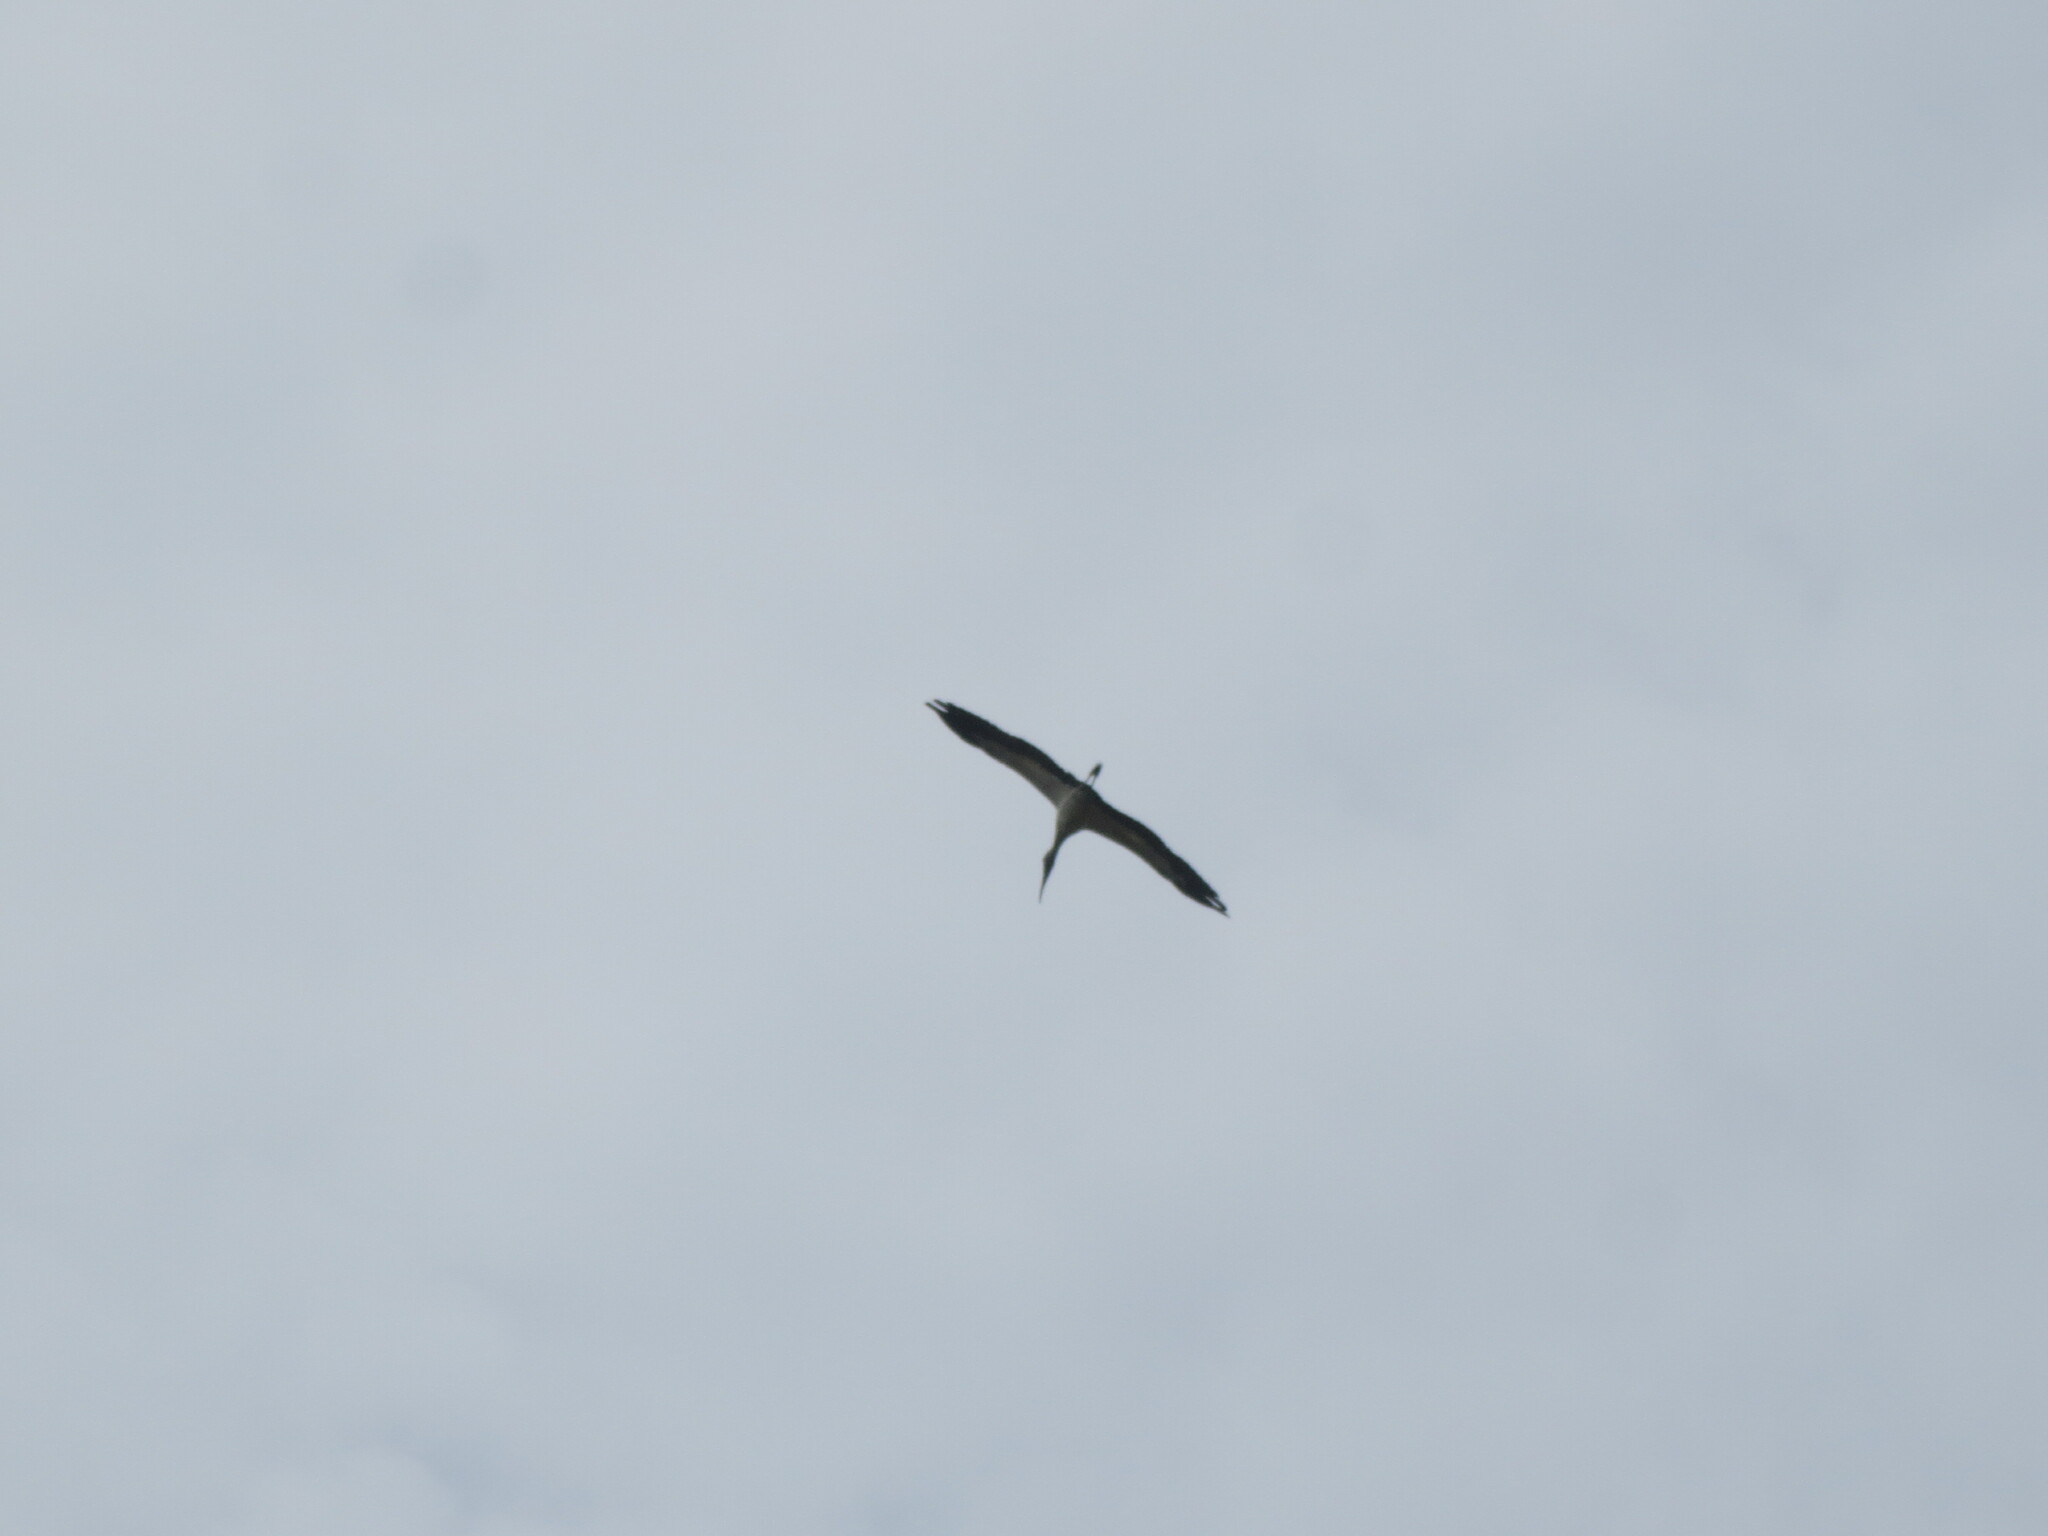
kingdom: Animalia
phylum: Chordata
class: Aves
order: Ciconiiformes
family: Ciconiidae
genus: Mycteria
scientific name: Mycteria americana
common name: Wood stork
